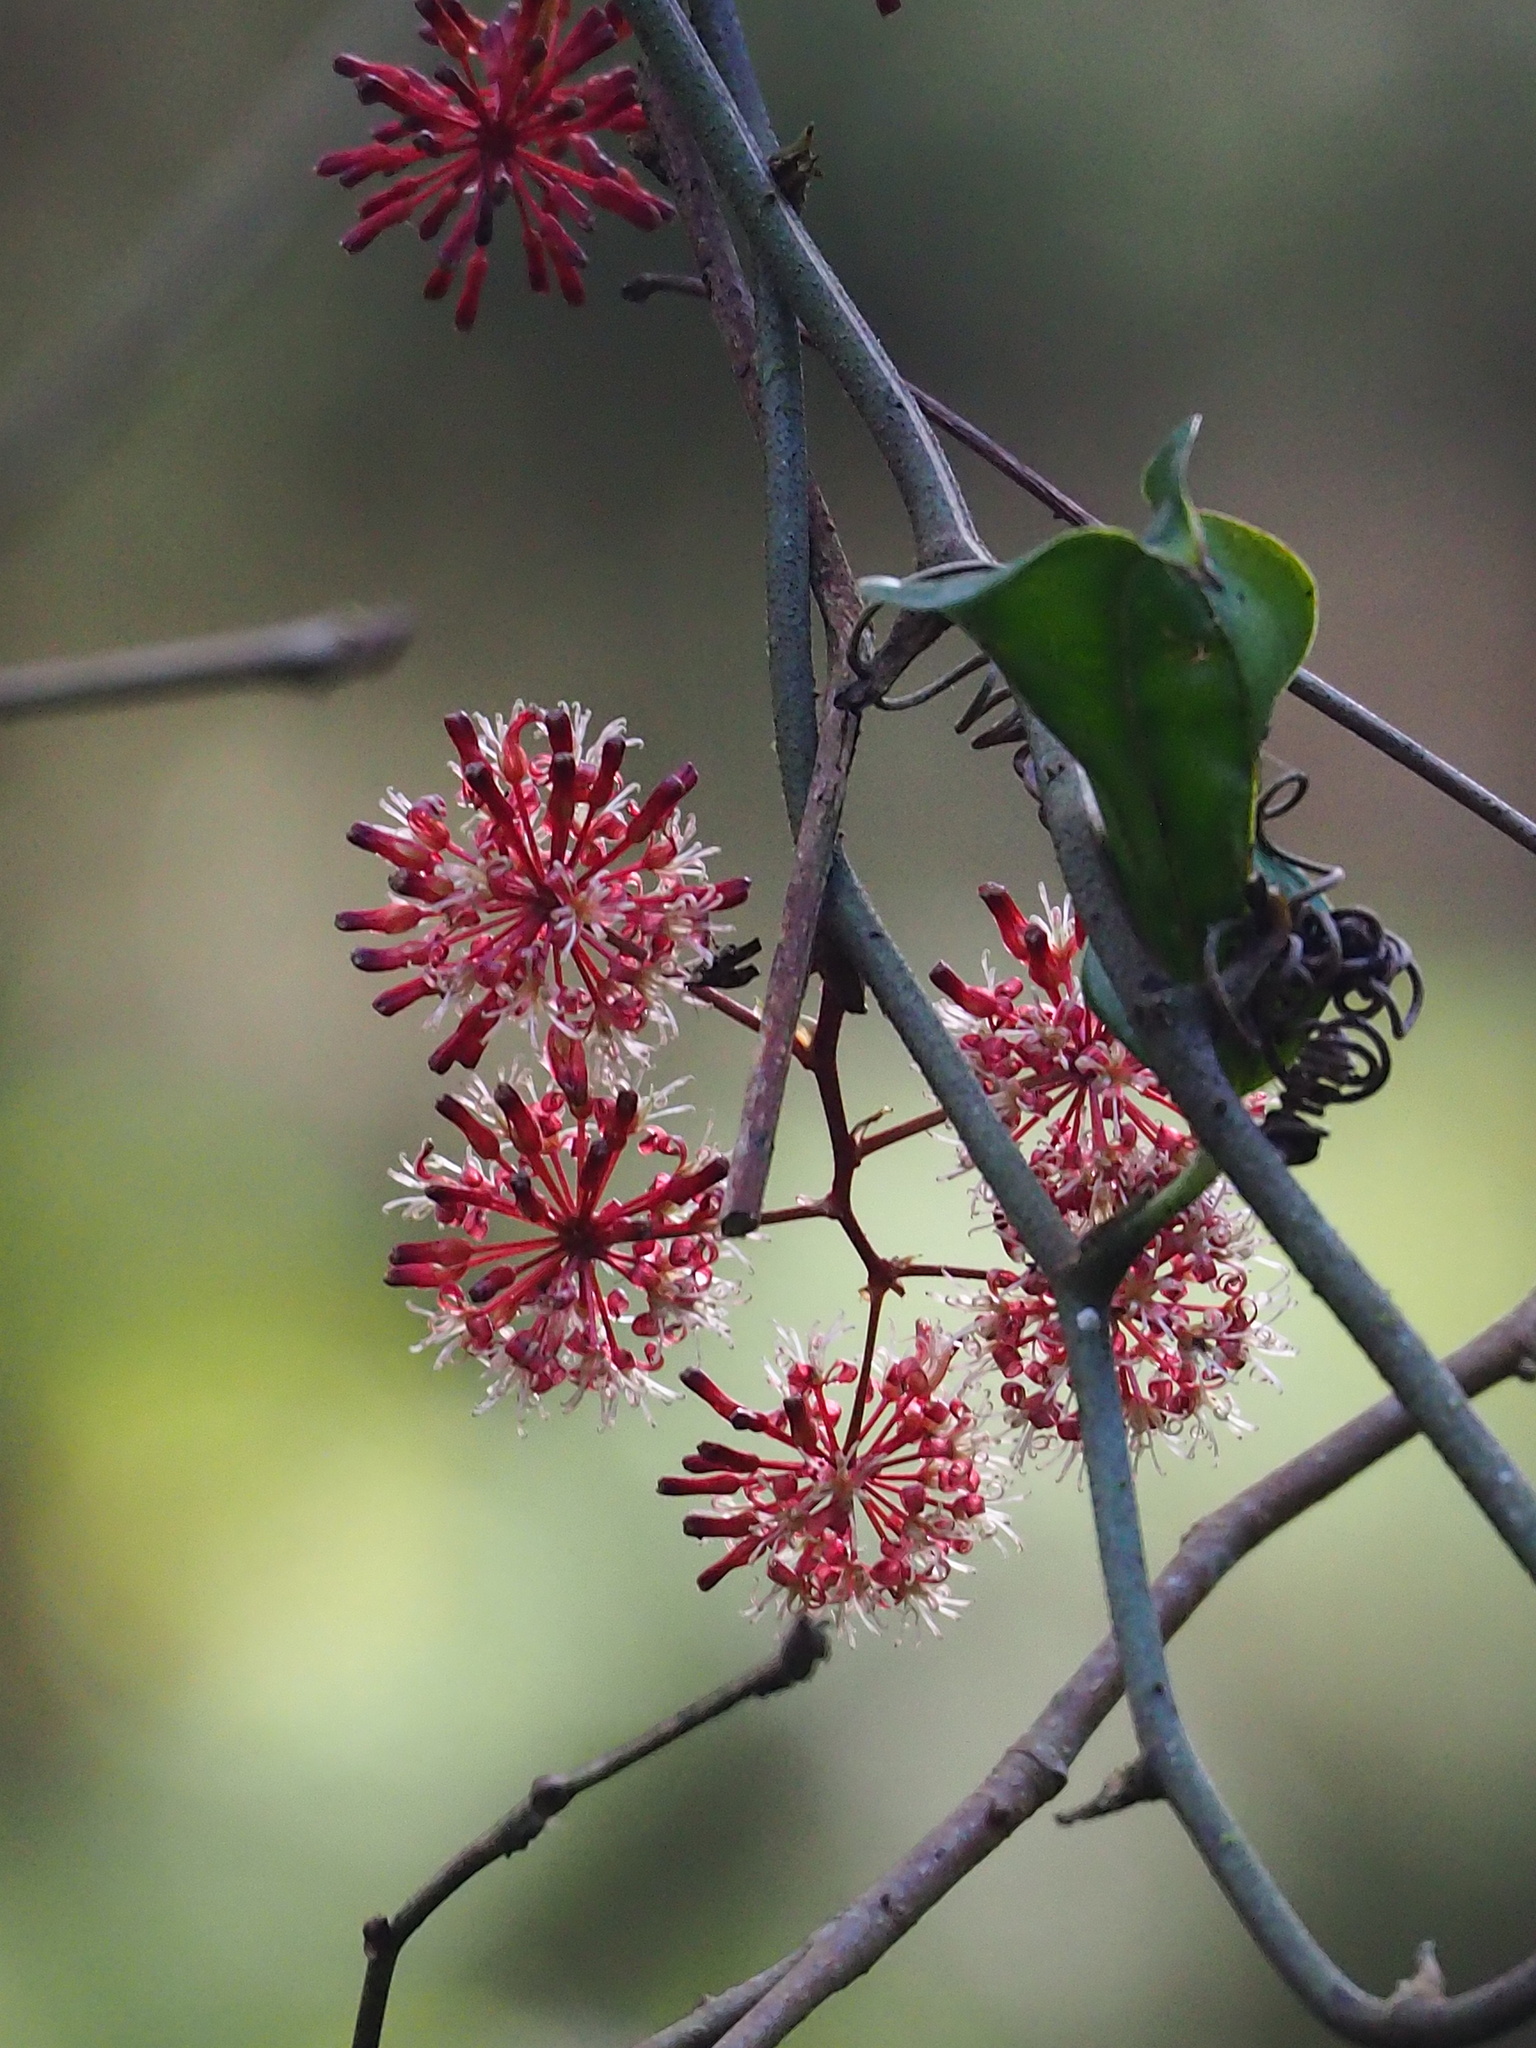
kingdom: Plantae
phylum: Tracheophyta
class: Liliopsida
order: Liliales
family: Smilacaceae
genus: Smilax
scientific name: Smilax aspericaulis
